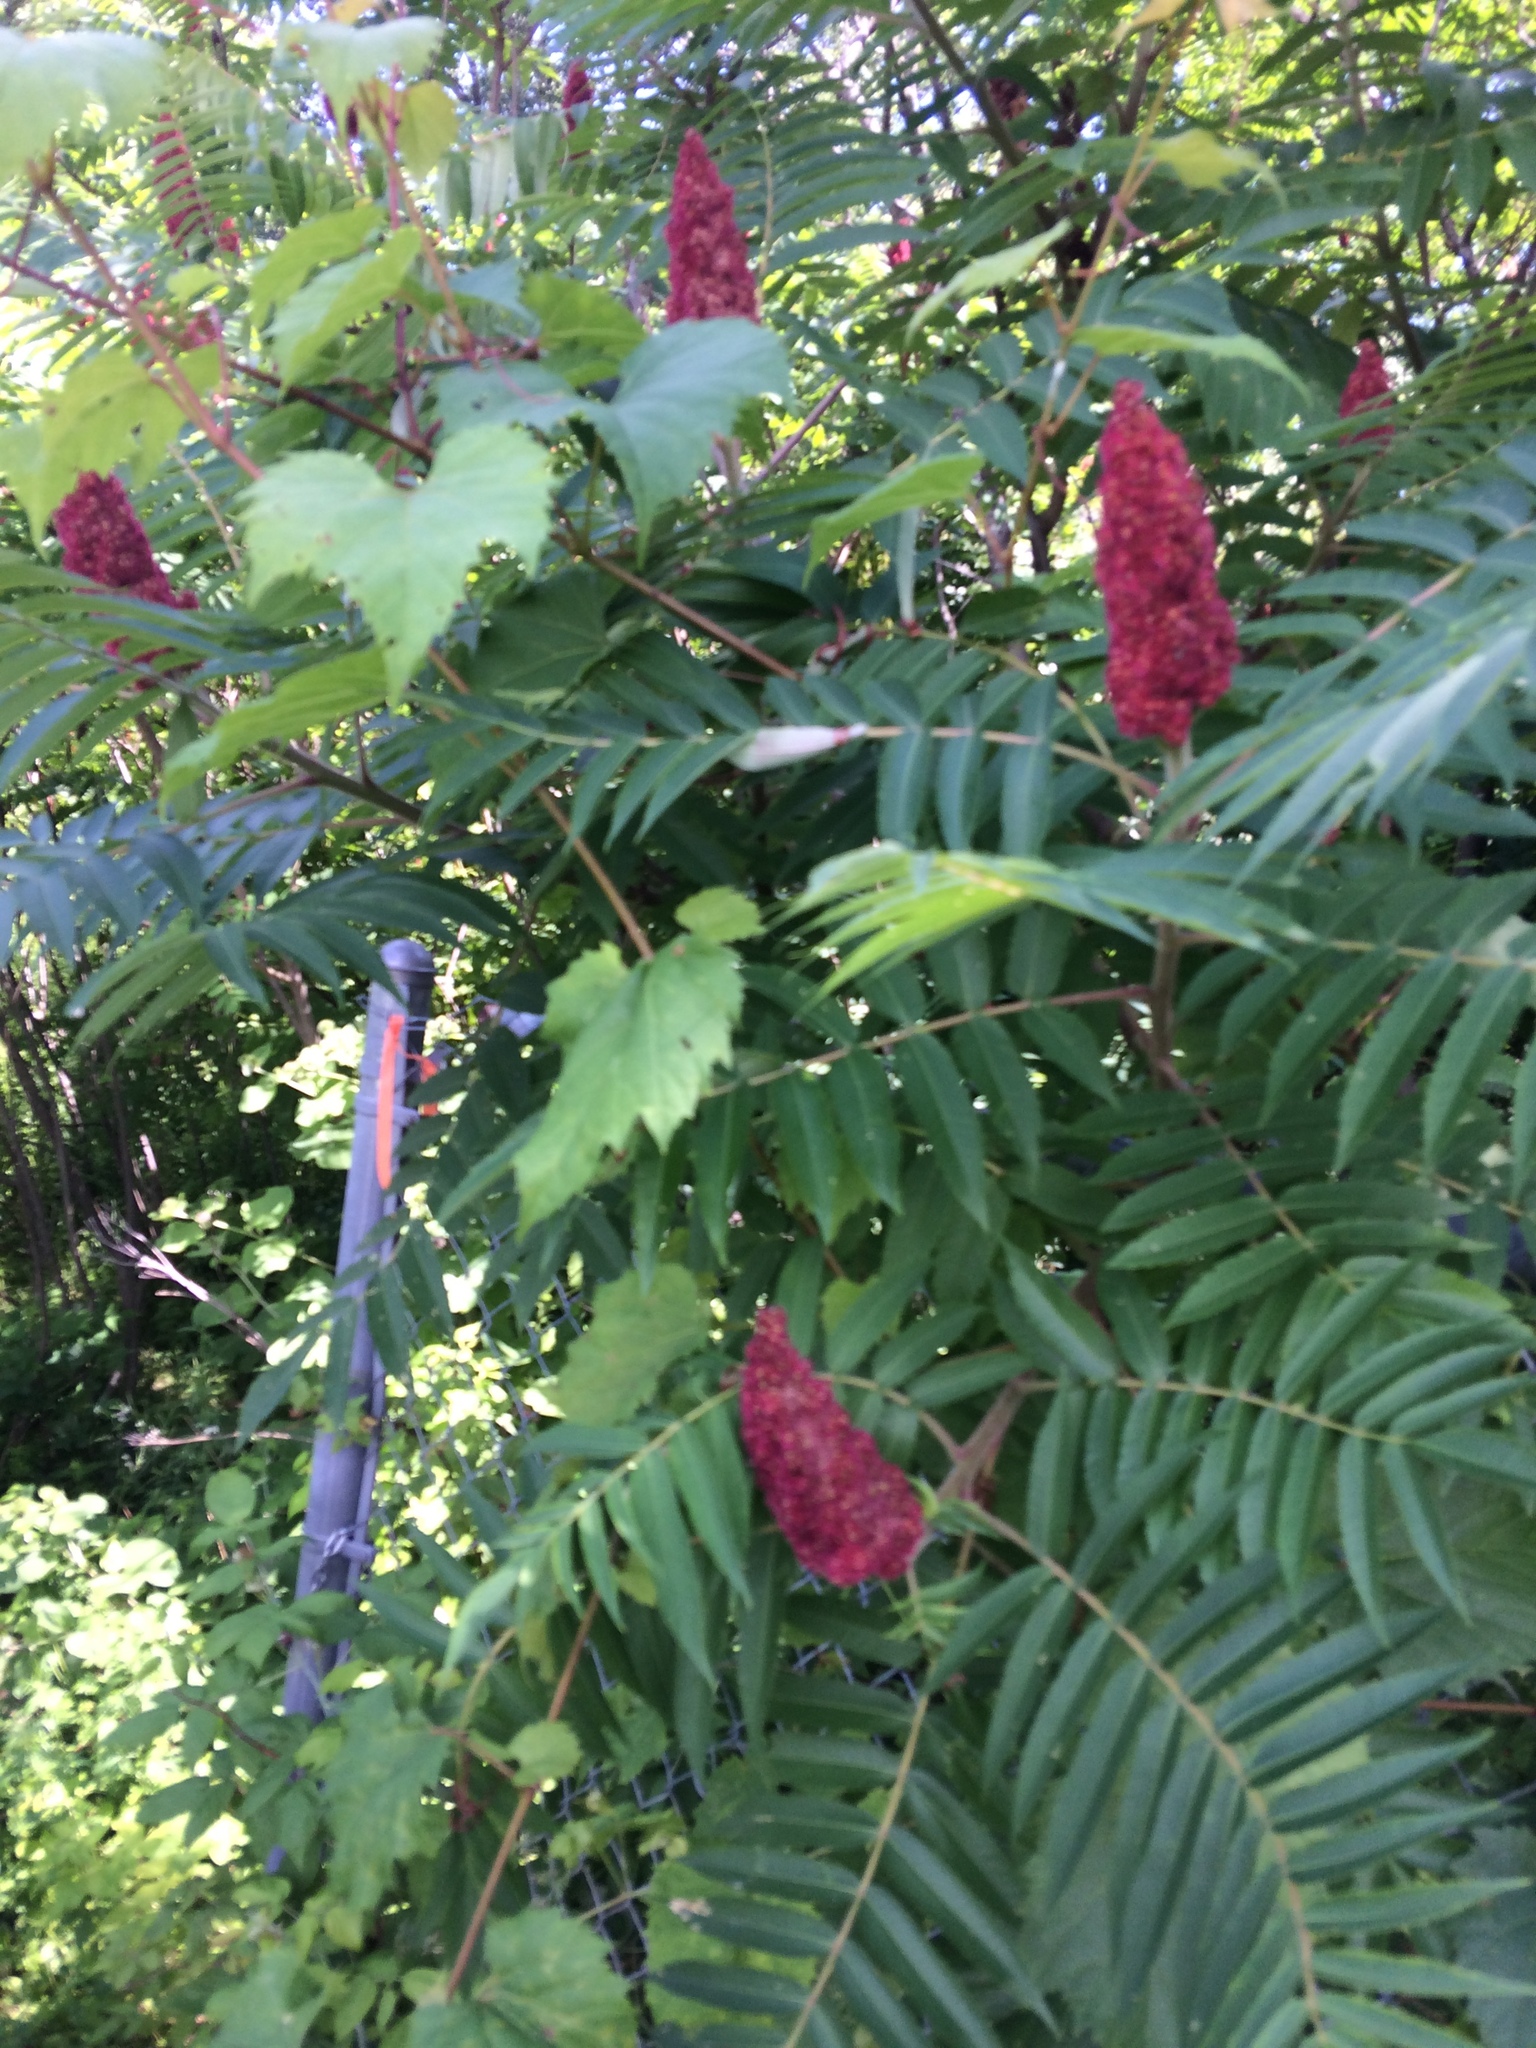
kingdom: Plantae
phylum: Tracheophyta
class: Magnoliopsida
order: Sapindales
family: Anacardiaceae
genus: Rhus
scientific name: Rhus typhina
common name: Staghorn sumac
